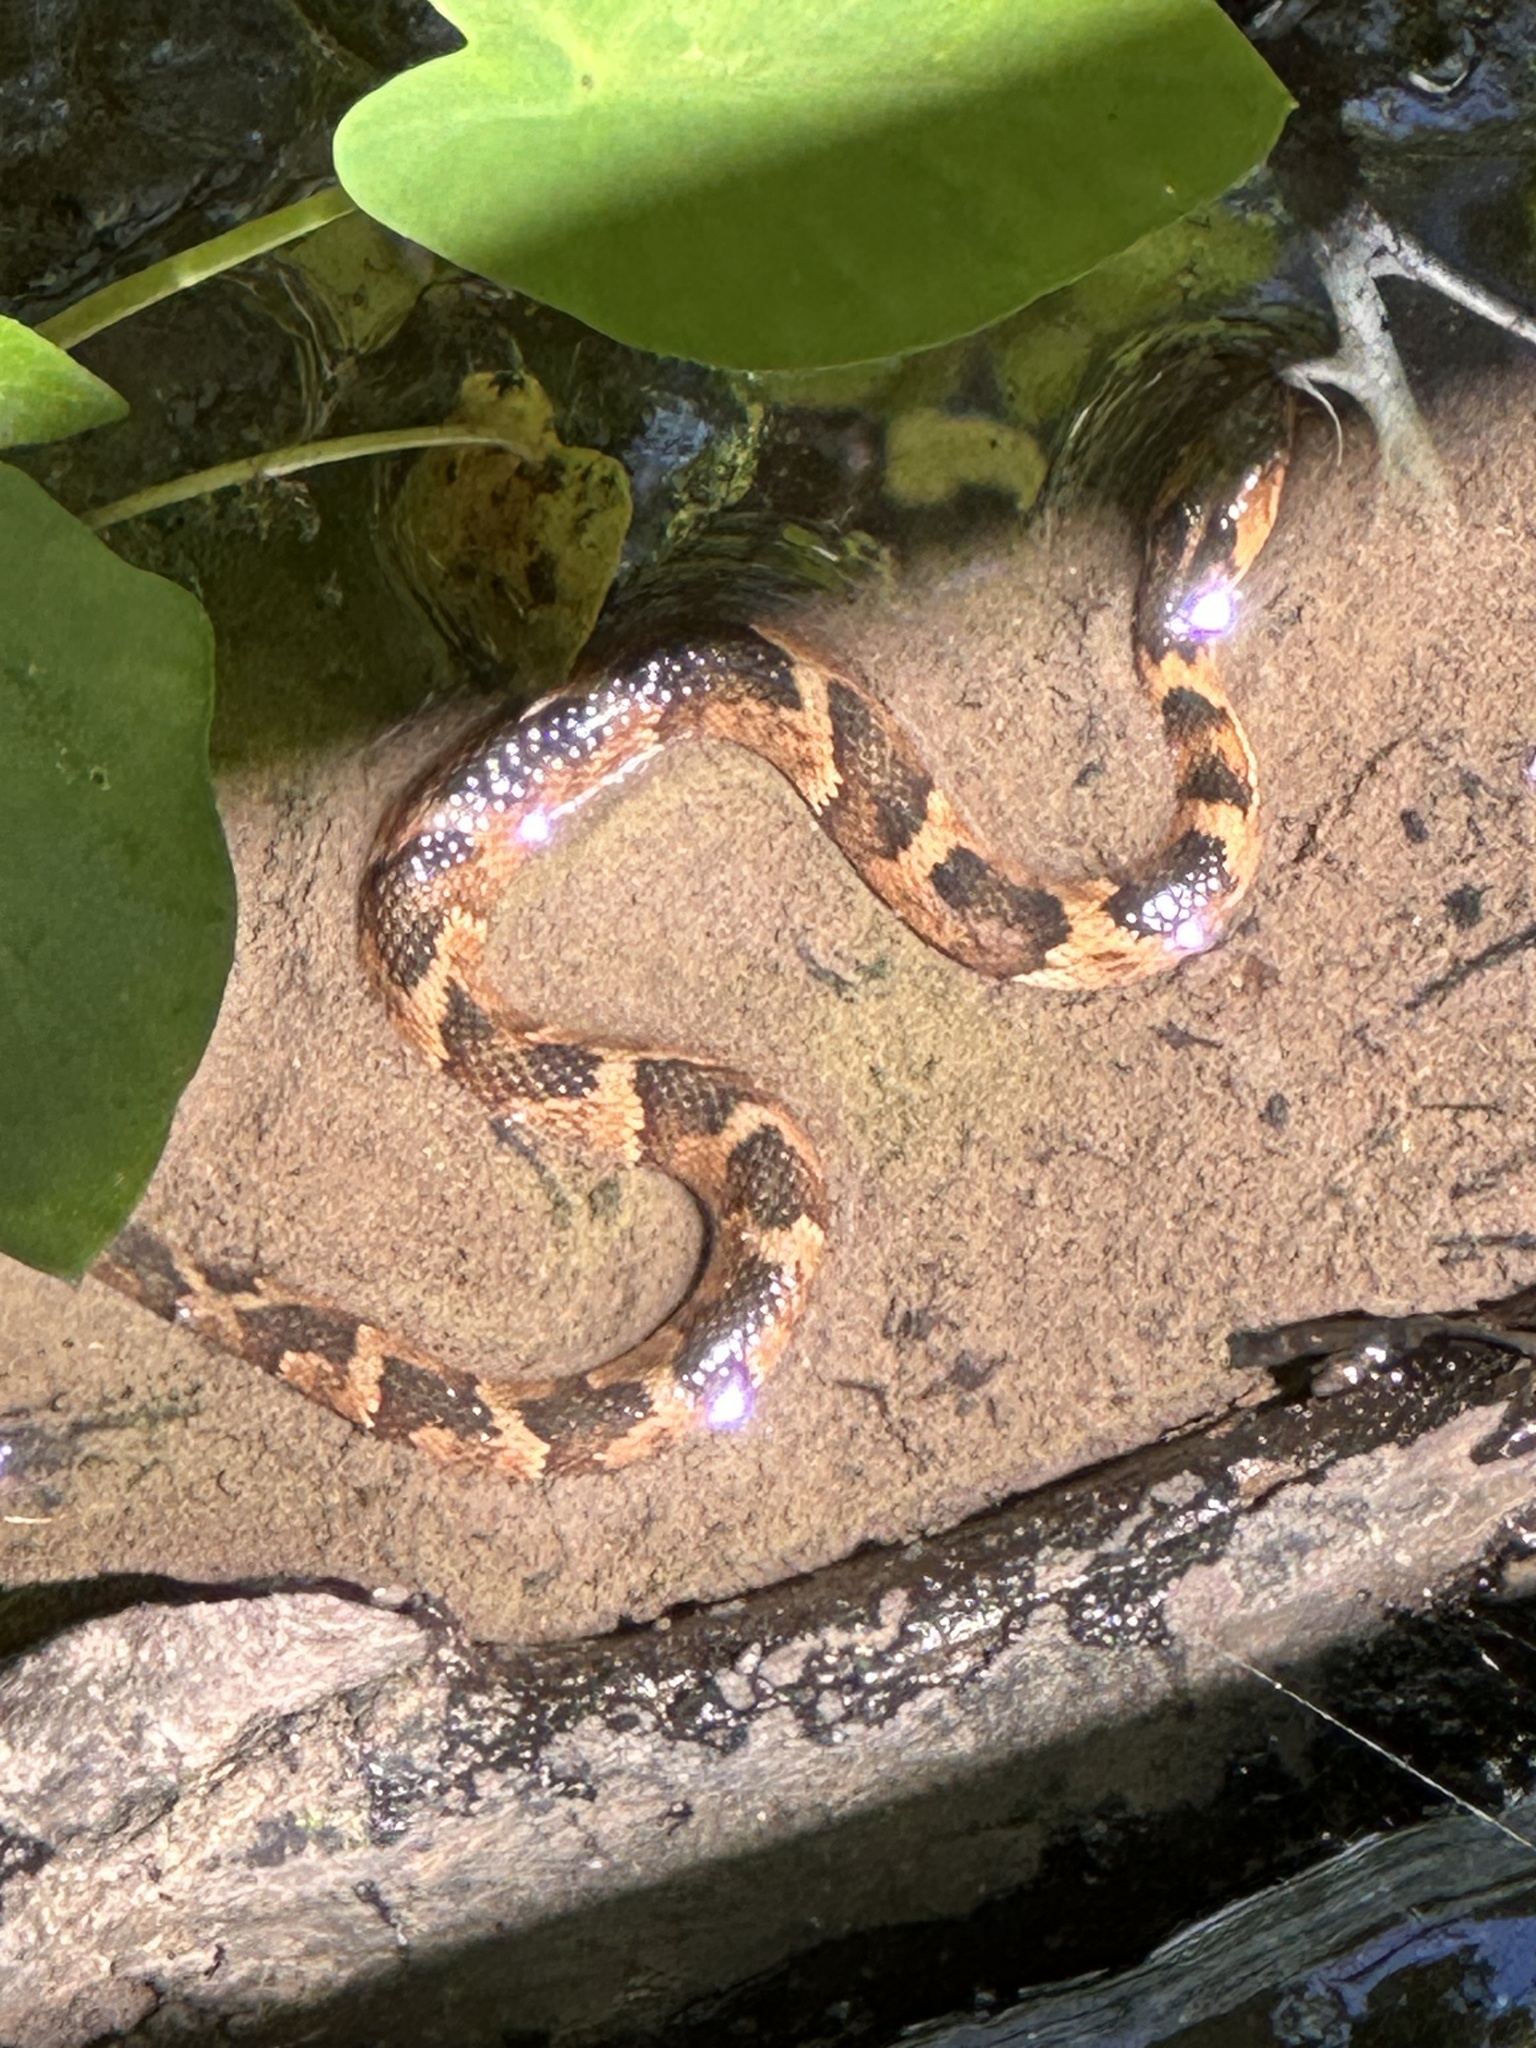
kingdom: Animalia
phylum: Chordata
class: Squamata
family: Colubridae
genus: Nerodia
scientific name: Nerodia fasciata
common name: Southern water snake
